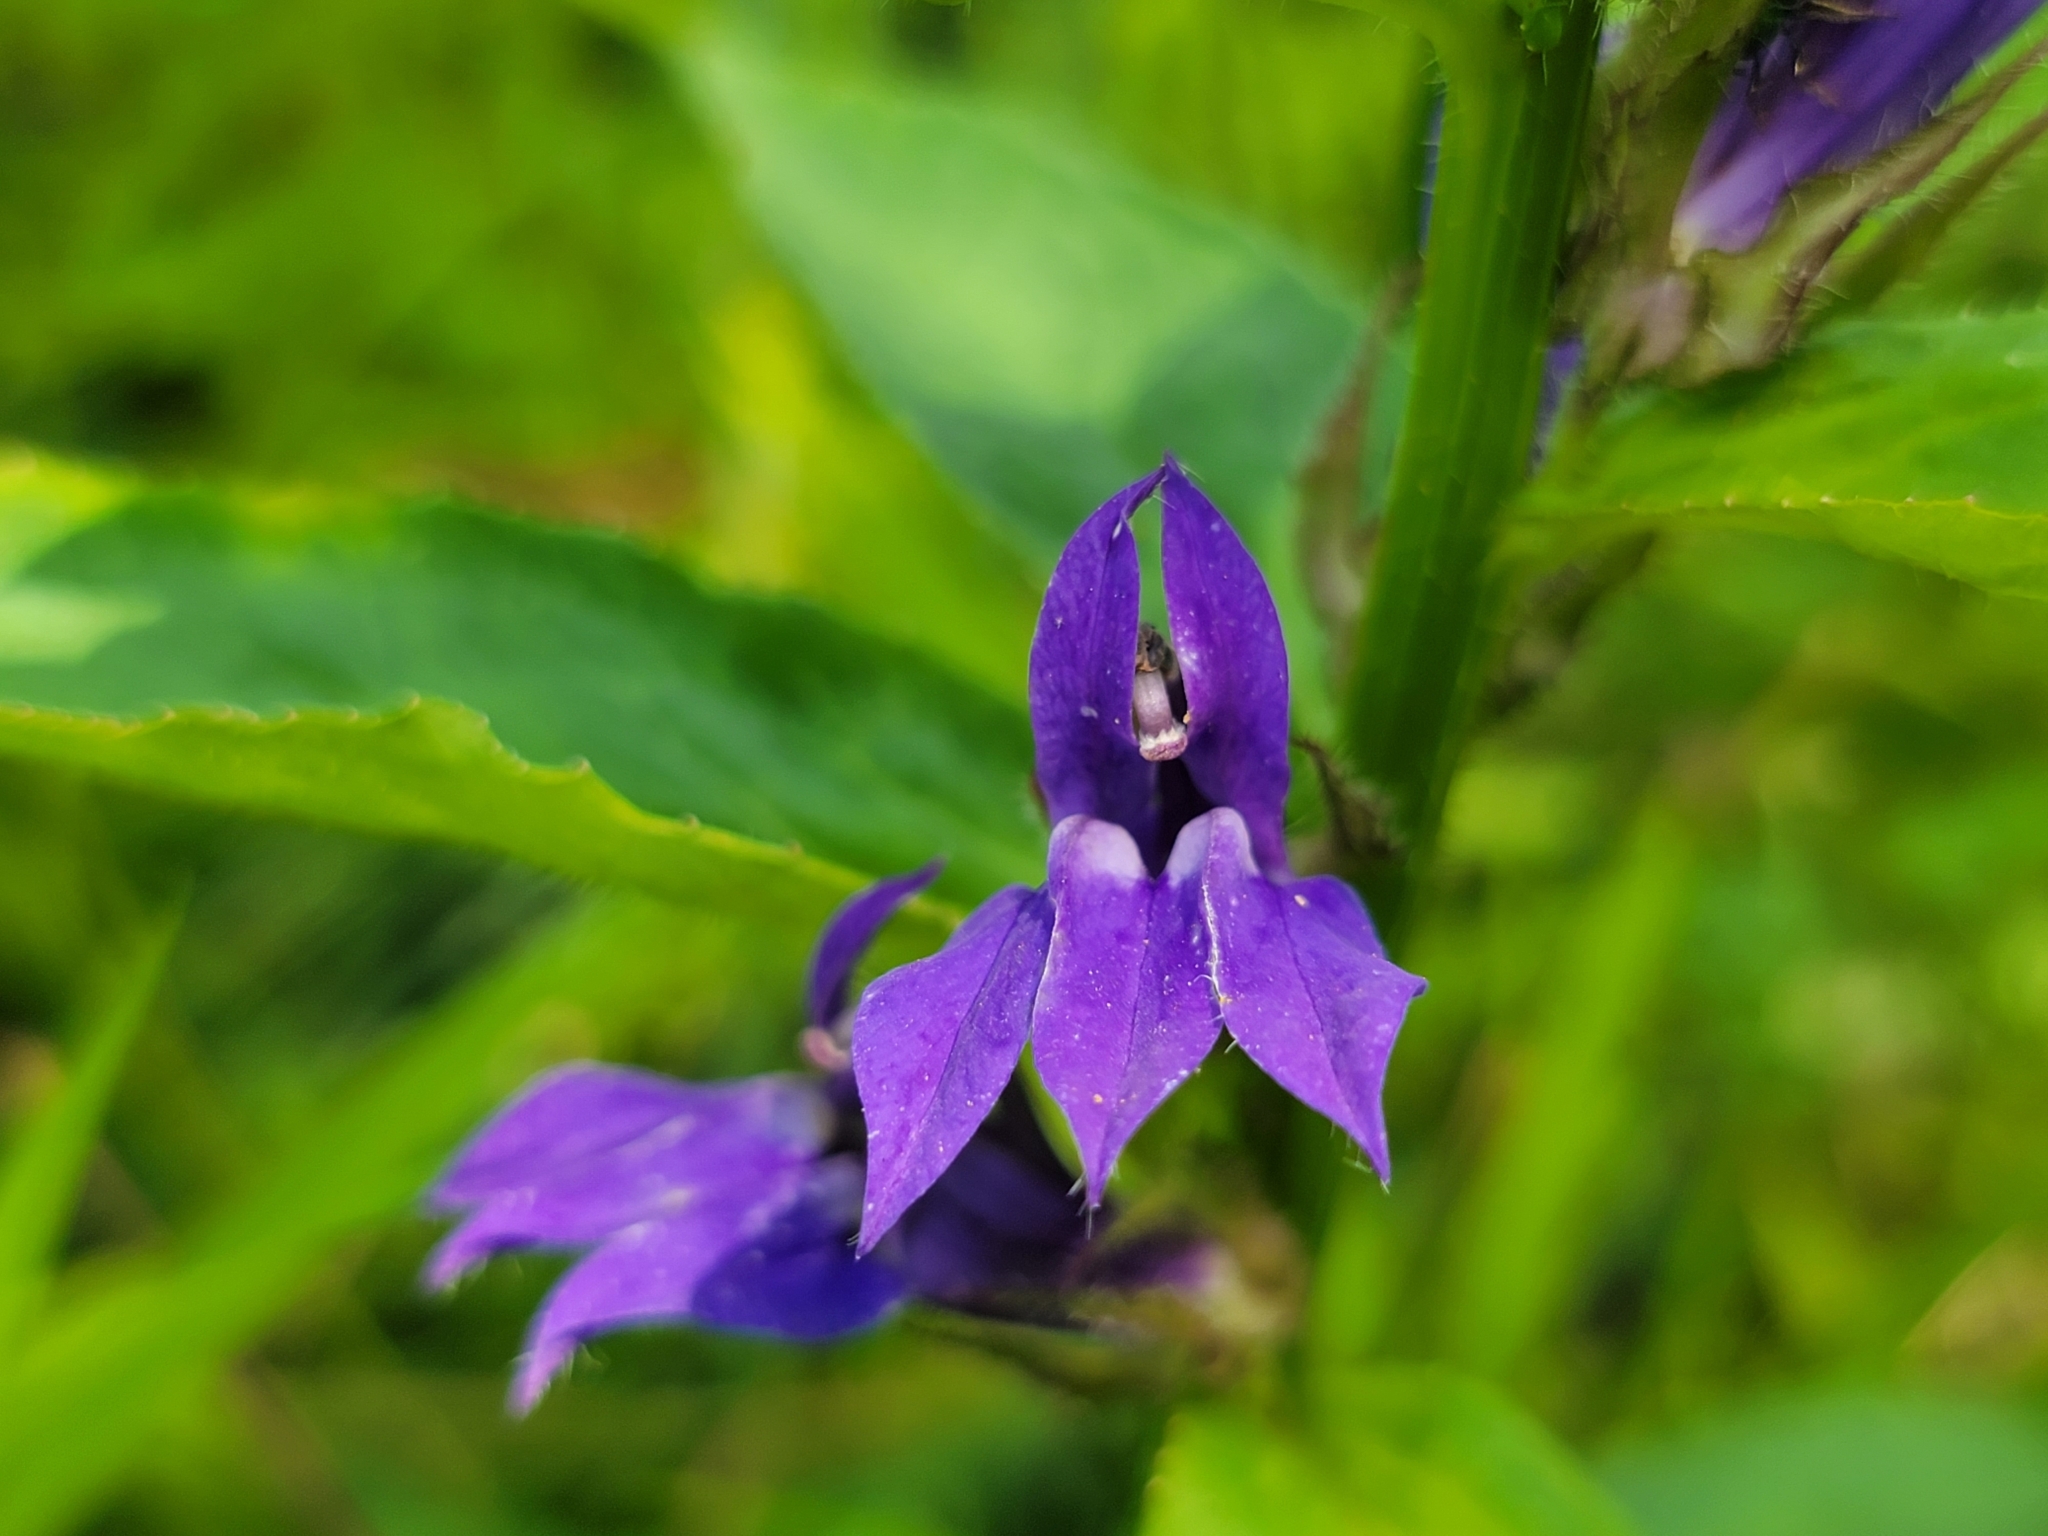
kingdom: Plantae
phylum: Tracheophyta
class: Magnoliopsida
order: Asterales
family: Campanulaceae
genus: Lobelia
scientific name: Lobelia siphilitica
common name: Great lobelia
